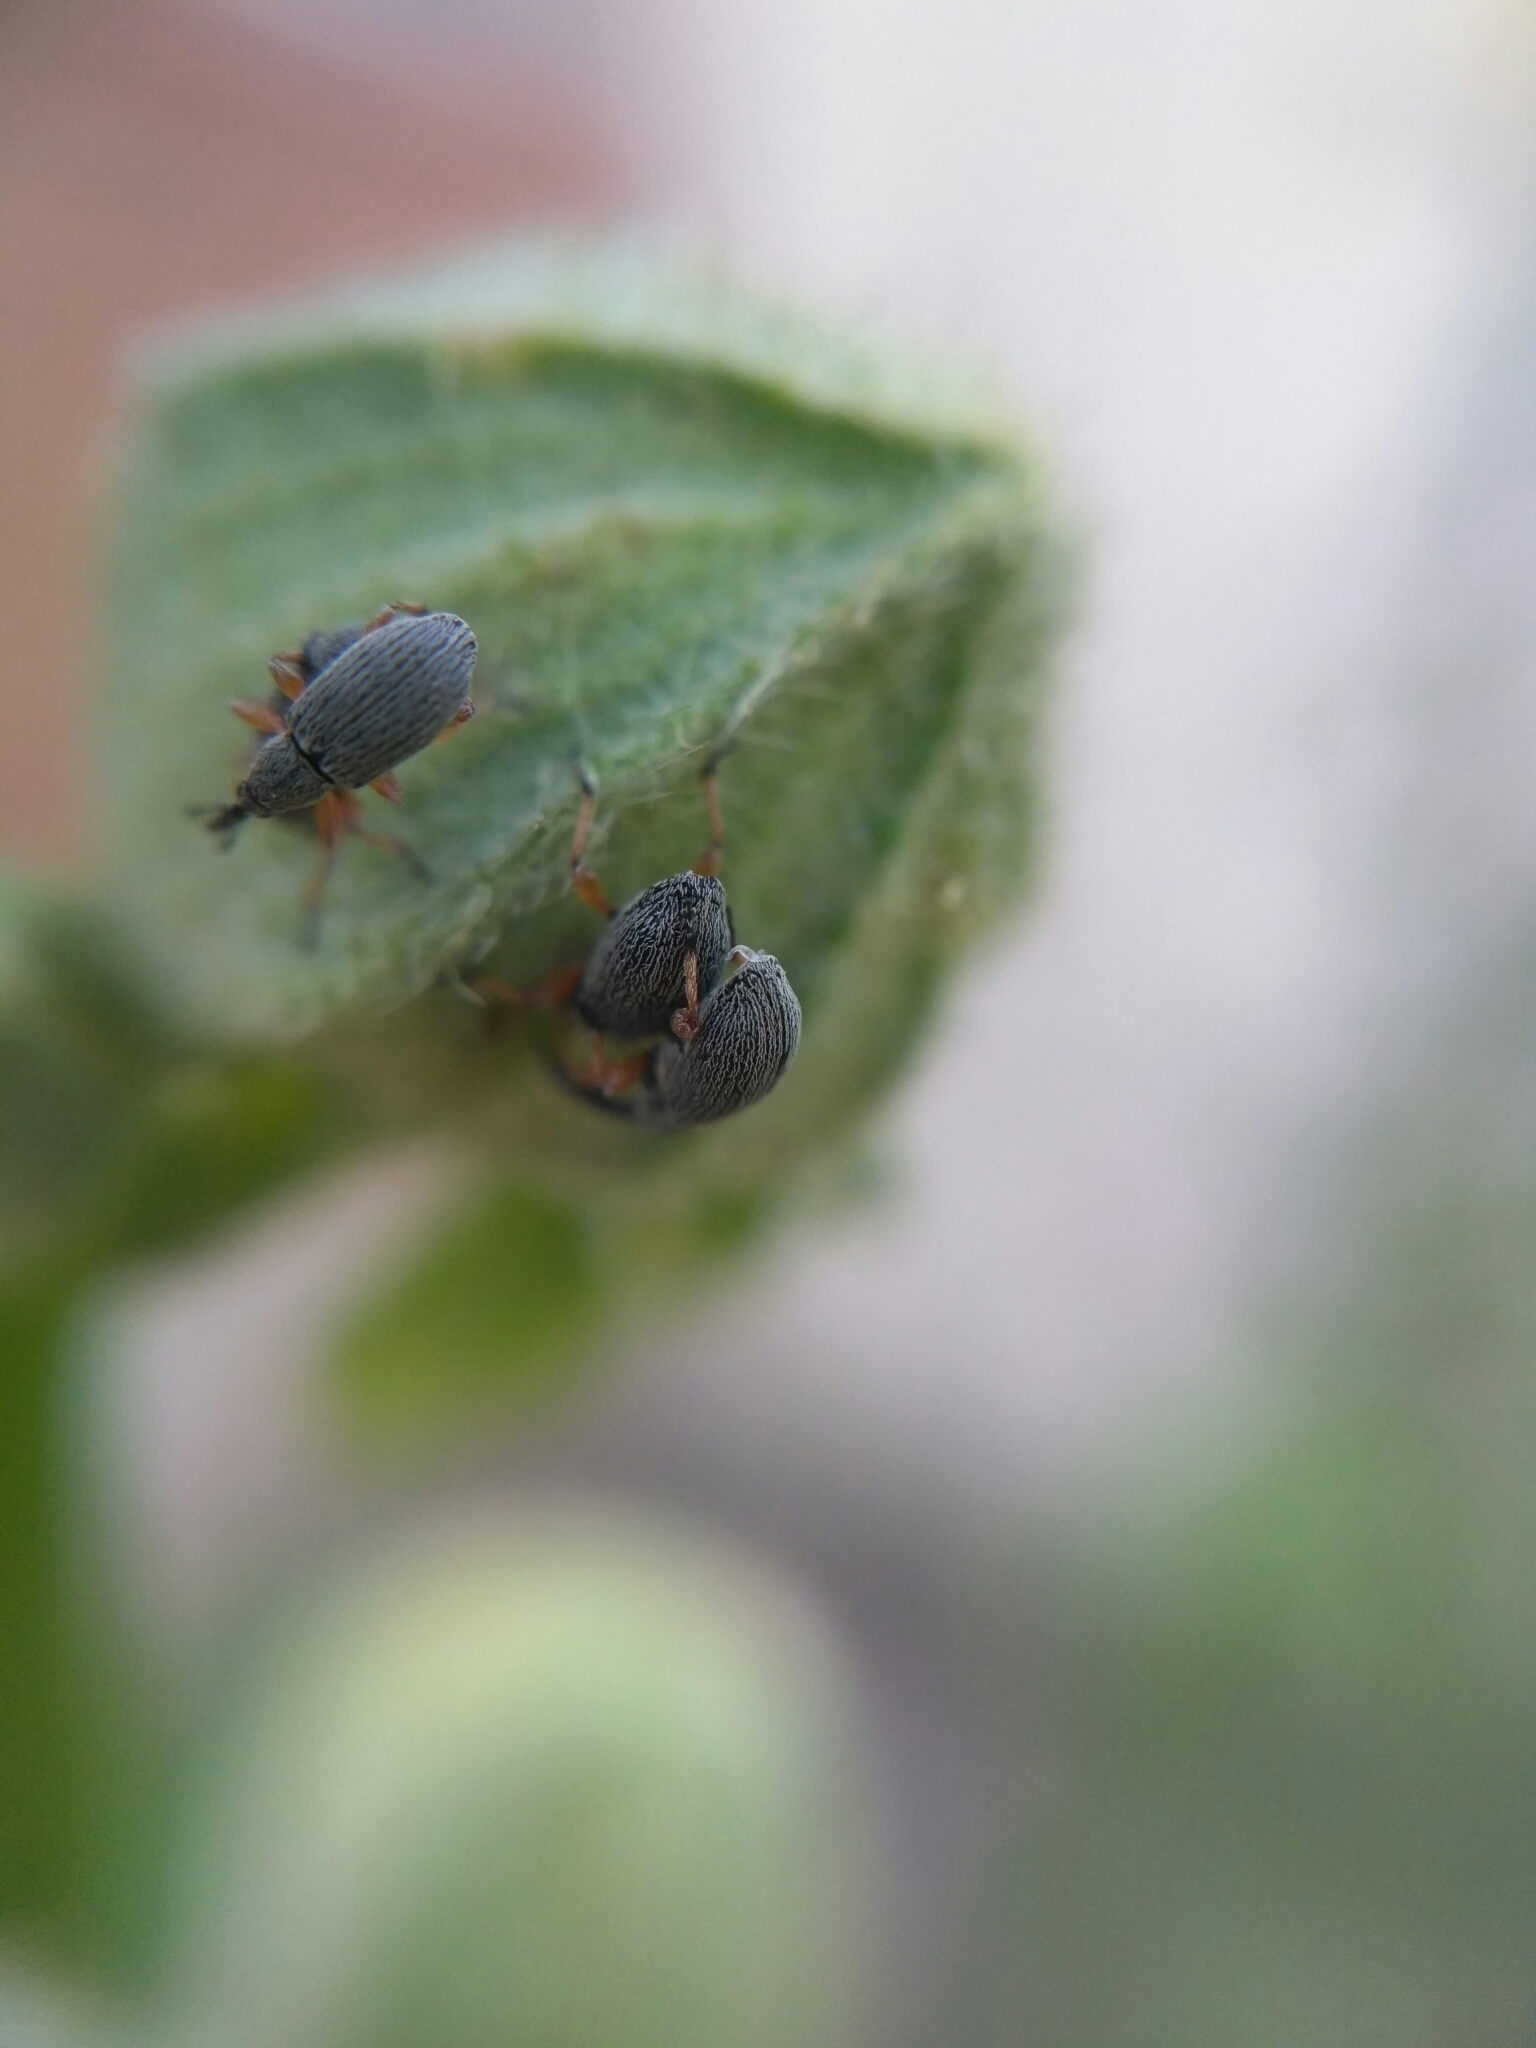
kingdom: Animalia
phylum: Arthropoda
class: Insecta
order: Coleoptera
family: Brentidae
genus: Rhopalapion
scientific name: Rhopalapion longirostre
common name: Hollyhock weevil
